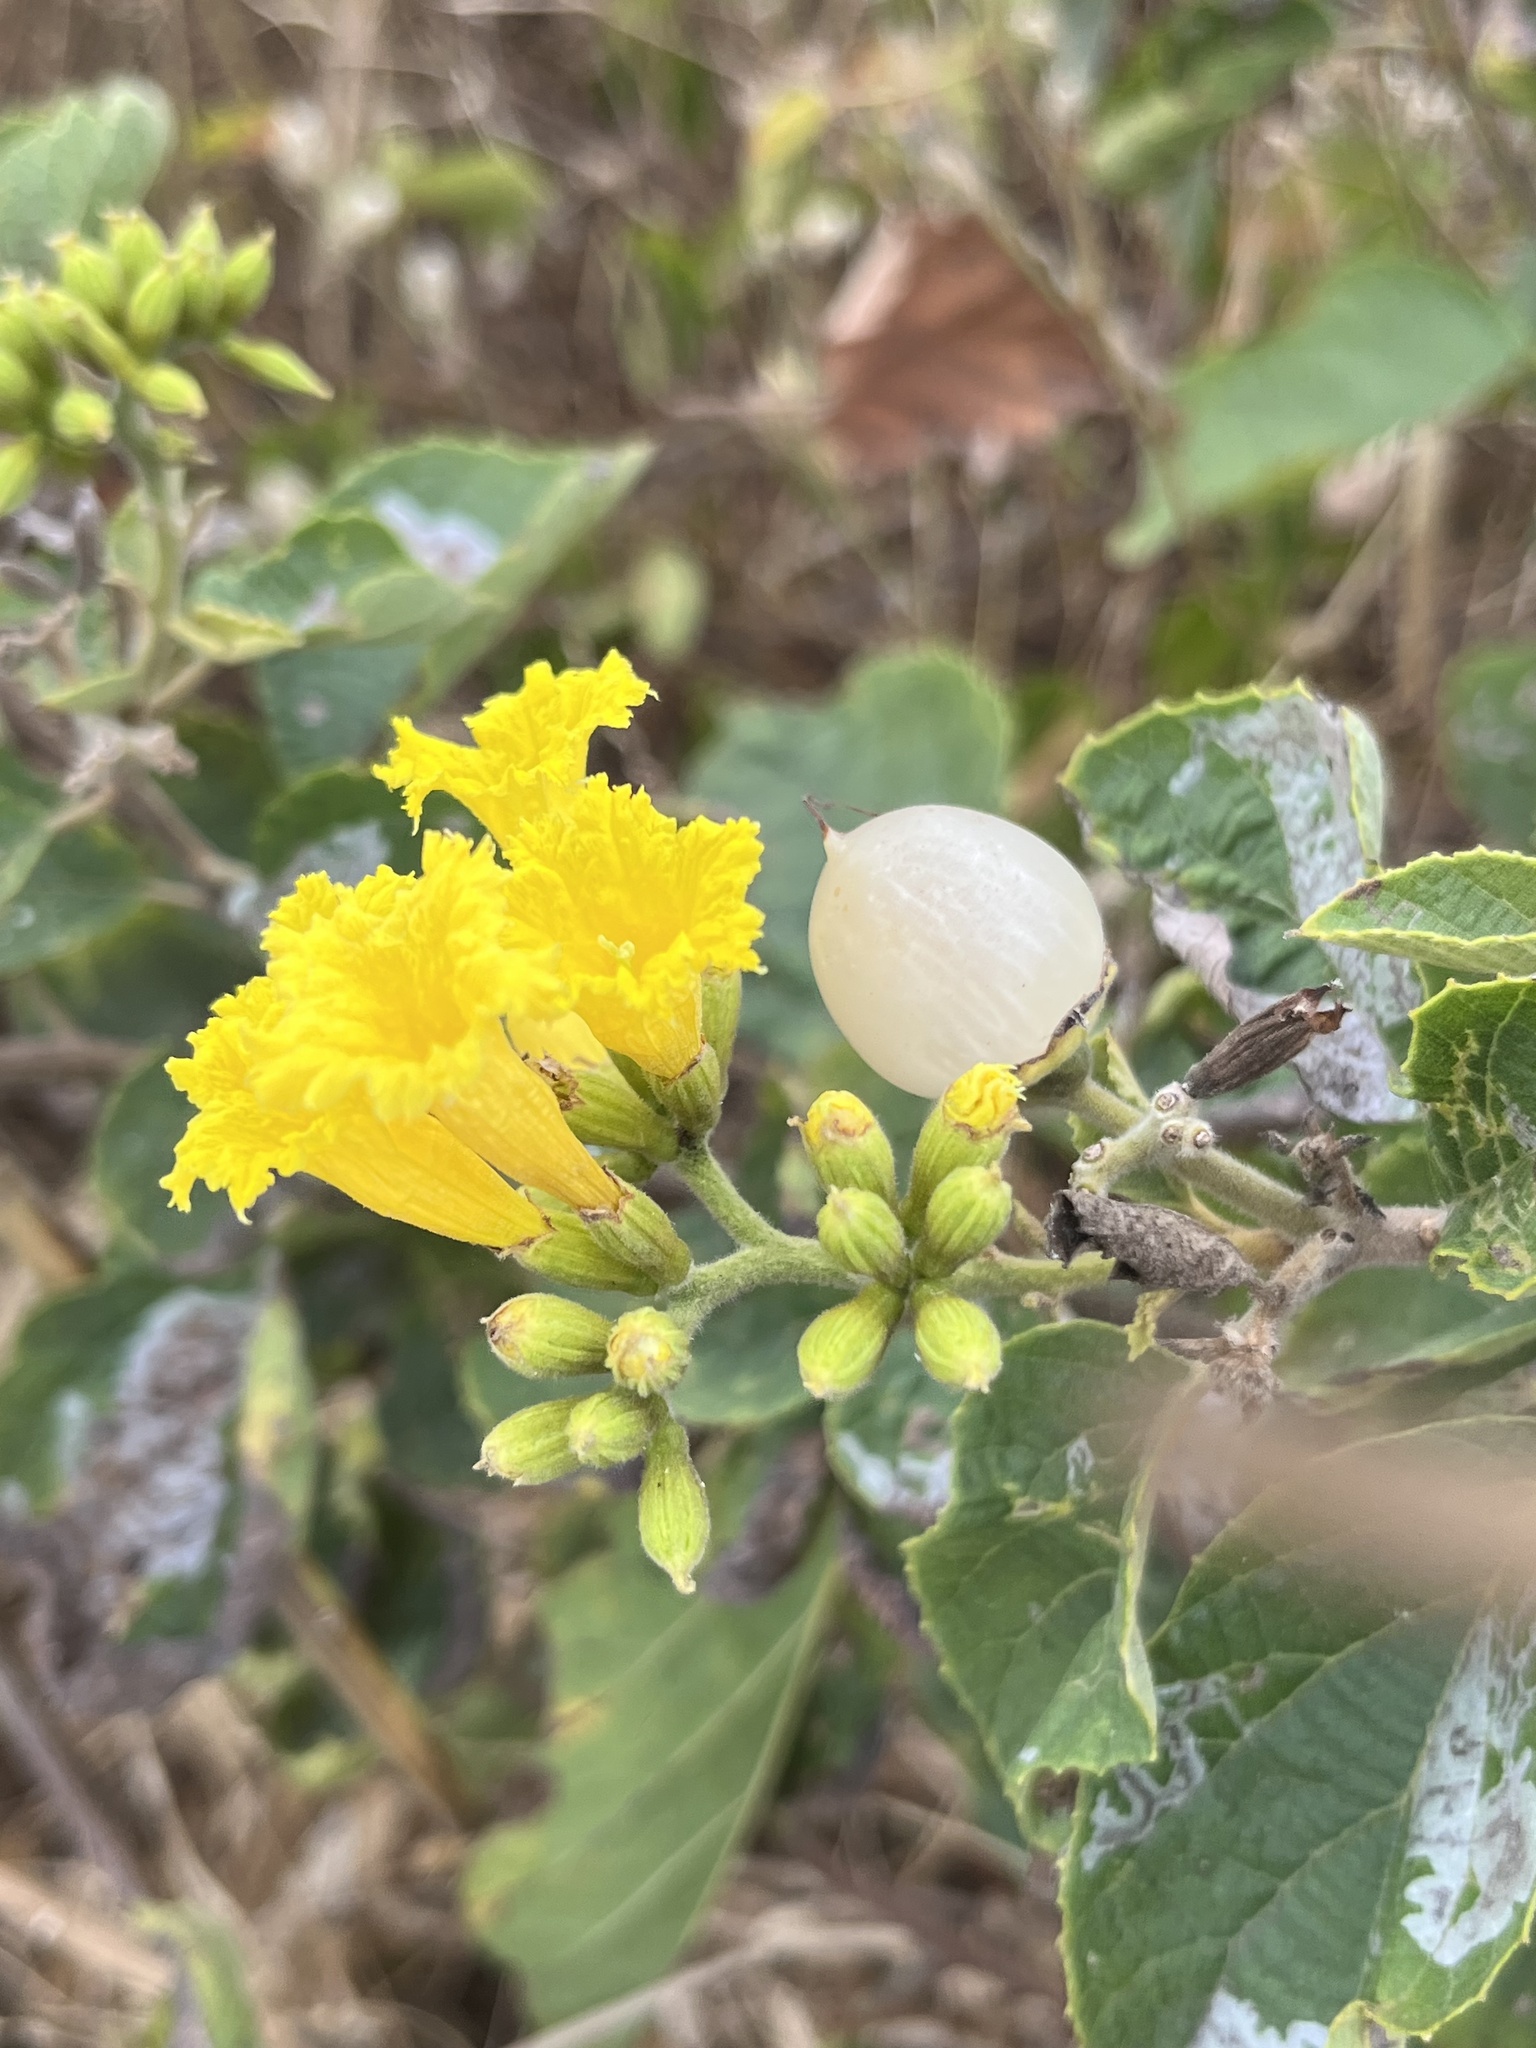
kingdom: Plantae
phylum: Tracheophyta
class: Magnoliopsida
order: Boraginales
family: Cordiaceae
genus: Cordia
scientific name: Cordia lutea
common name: Yellow geiger
